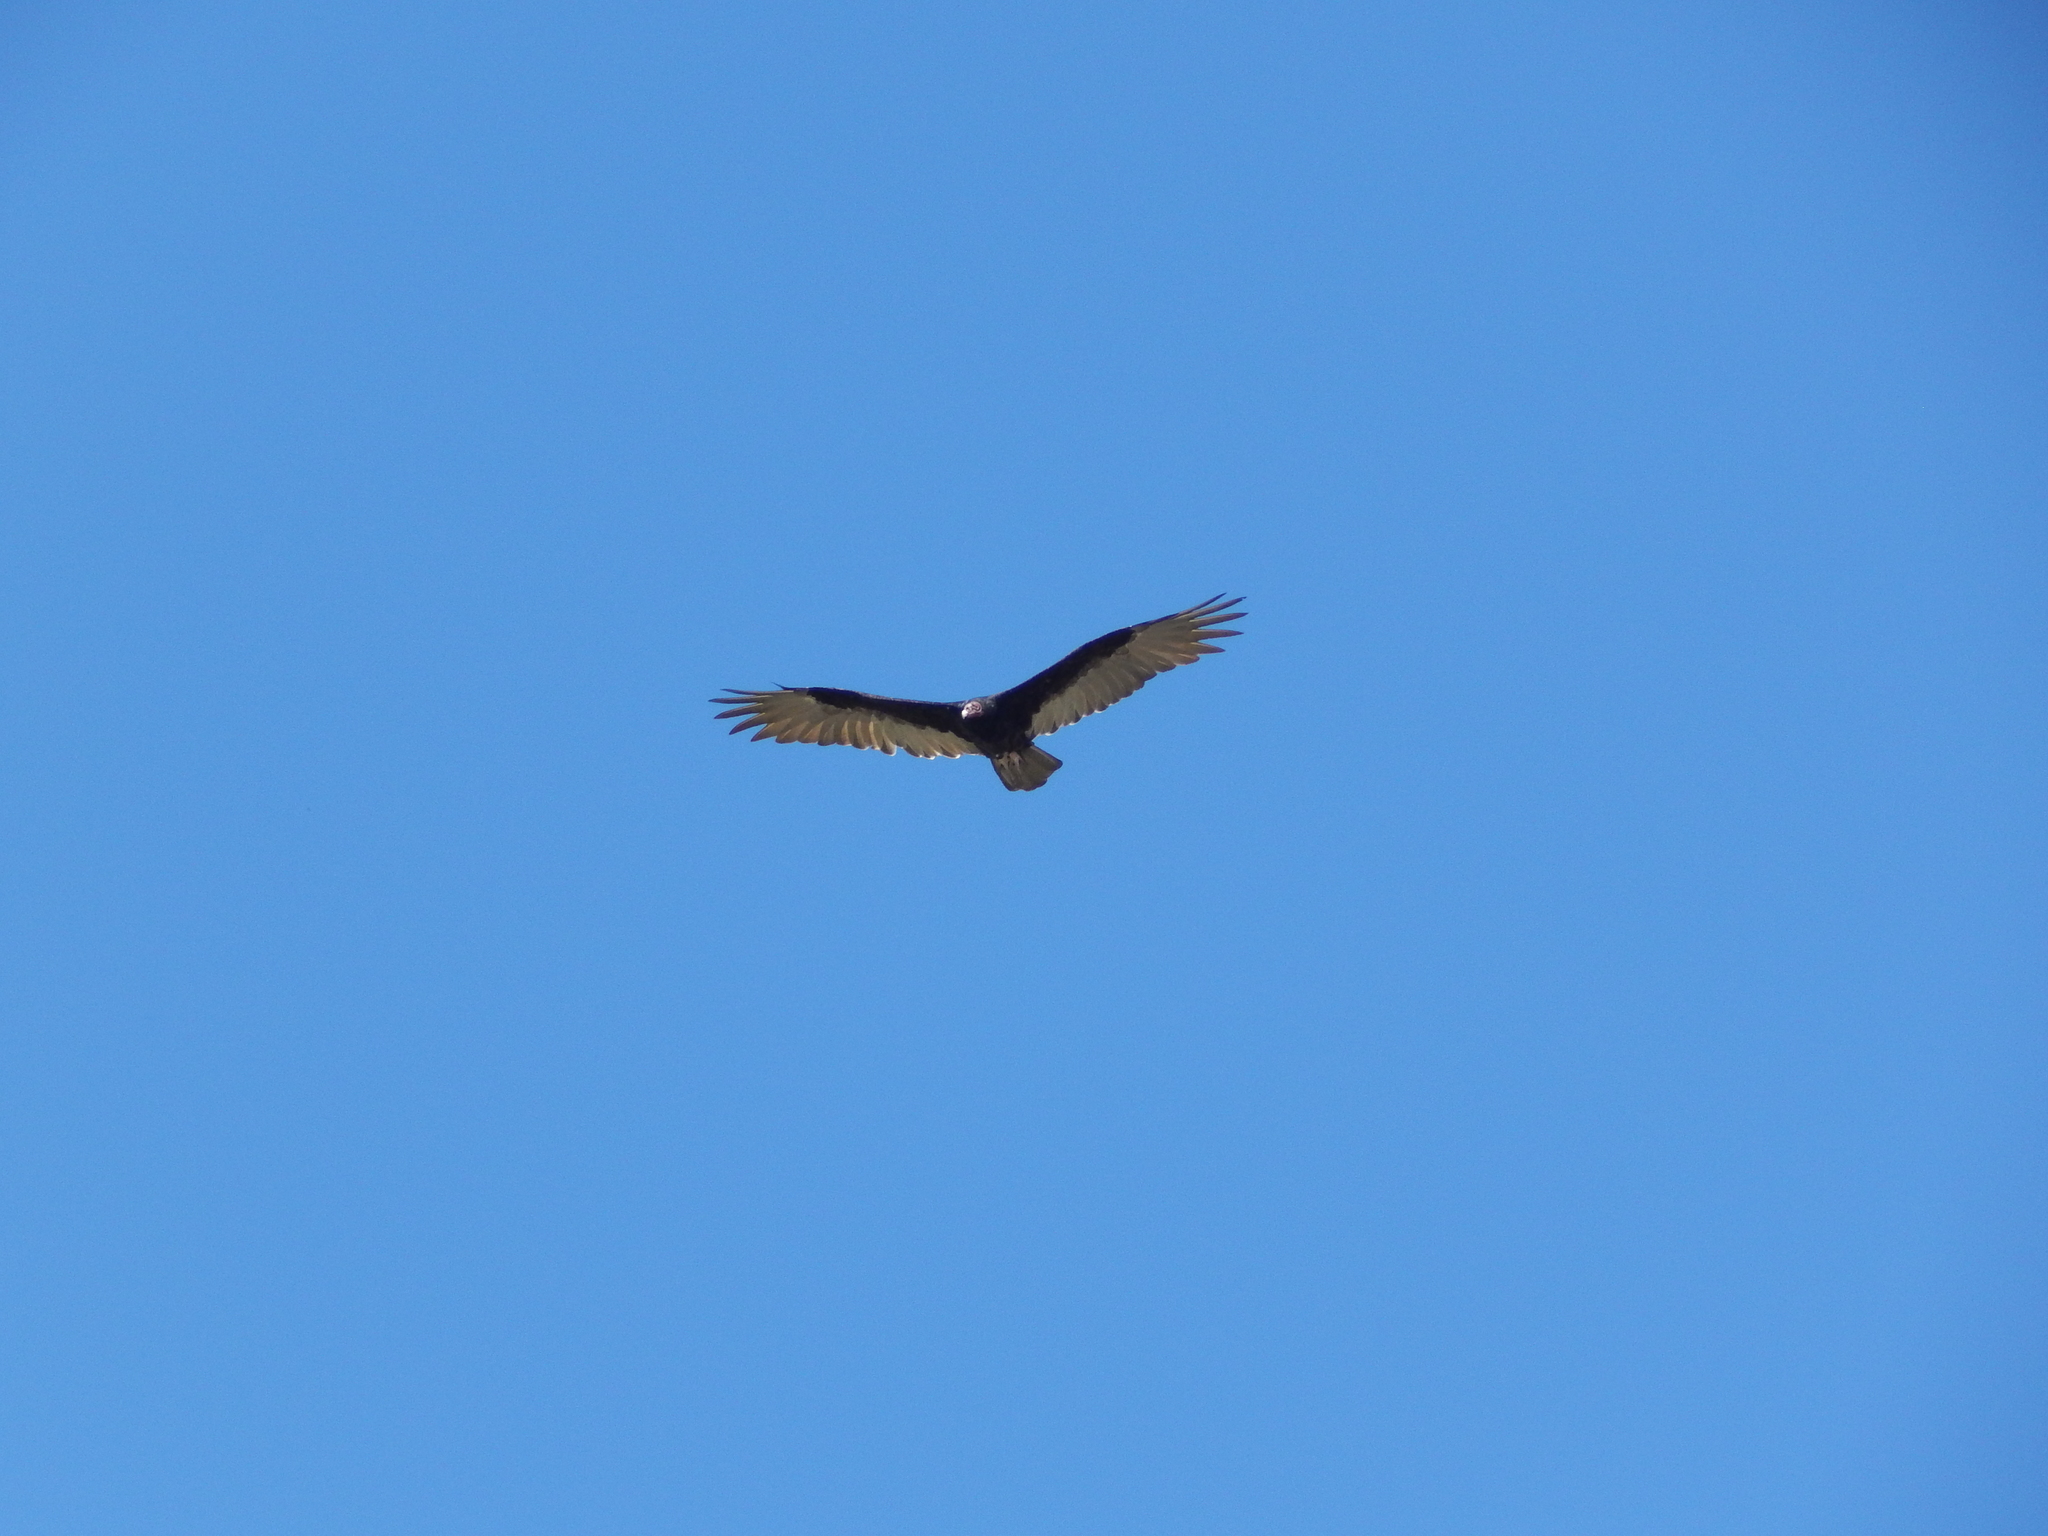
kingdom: Animalia
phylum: Chordata
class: Aves
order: Accipitriformes
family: Cathartidae
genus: Cathartes
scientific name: Cathartes aura
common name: Turkey vulture
